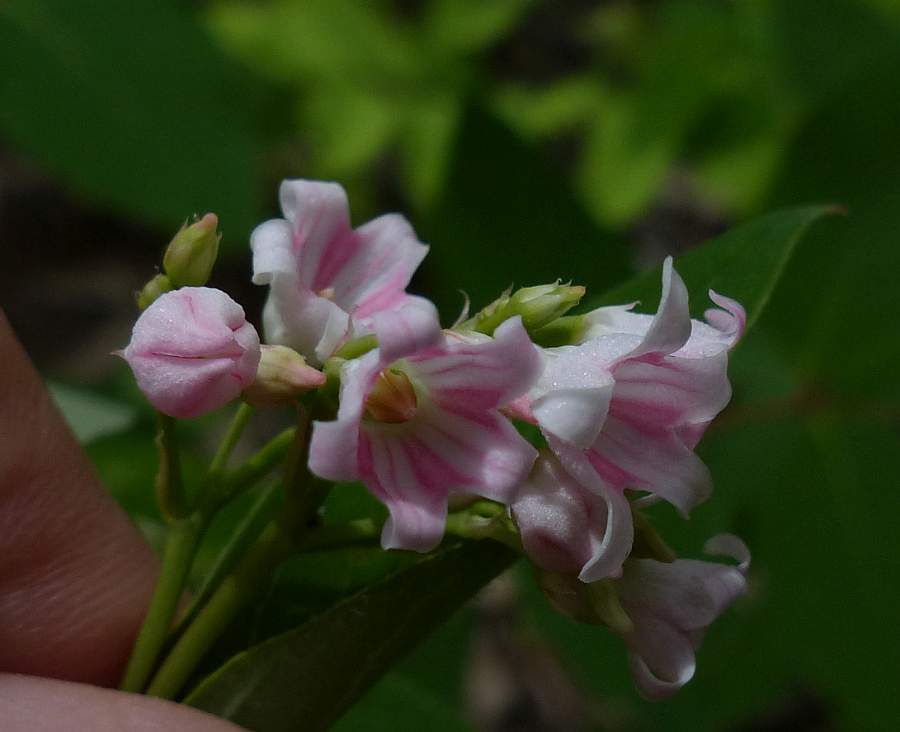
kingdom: Plantae
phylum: Tracheophyta
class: Magnoliopsida
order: Gentianales
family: Apocynaceae
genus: Apocynum
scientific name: Apocynum androsaemifolium
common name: Spreading dogbane
